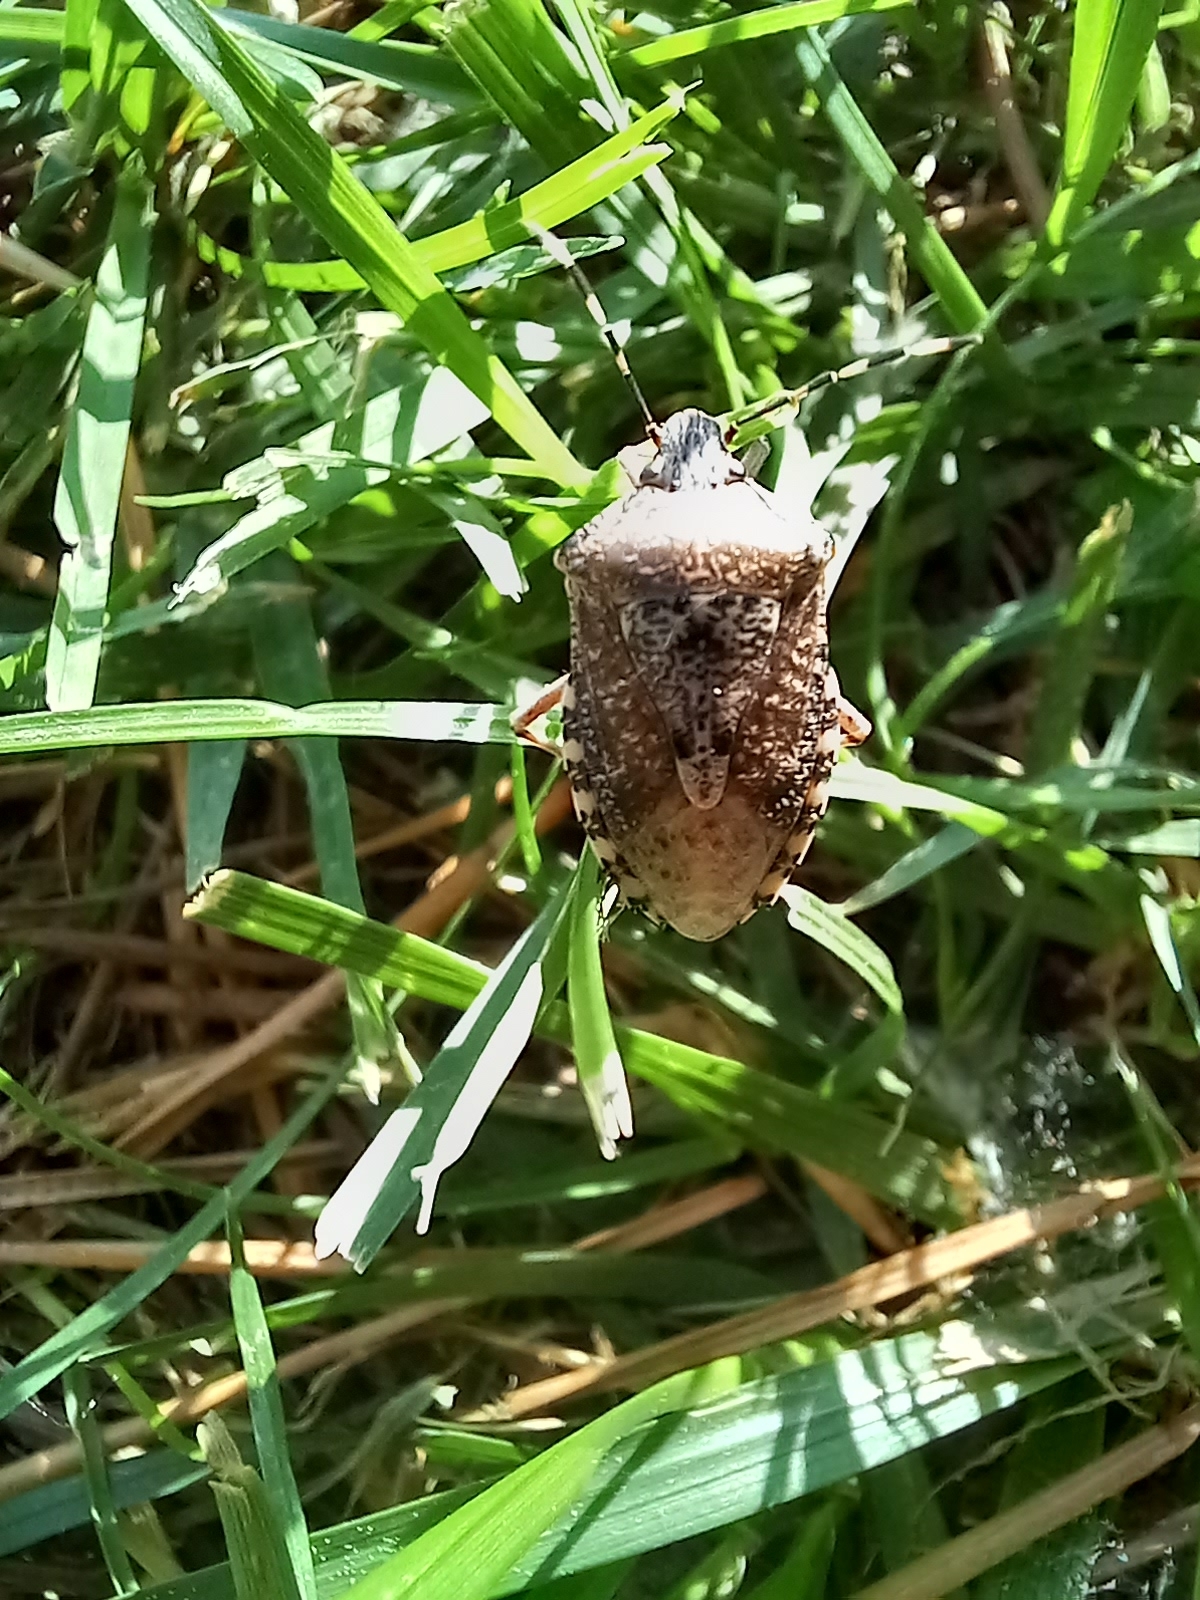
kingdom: Animalia
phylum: Arthropoda
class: Insecta
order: Hemiptera
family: Pentatomidae
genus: Rhaphigaster
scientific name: Rhaphigaster nebulosa
